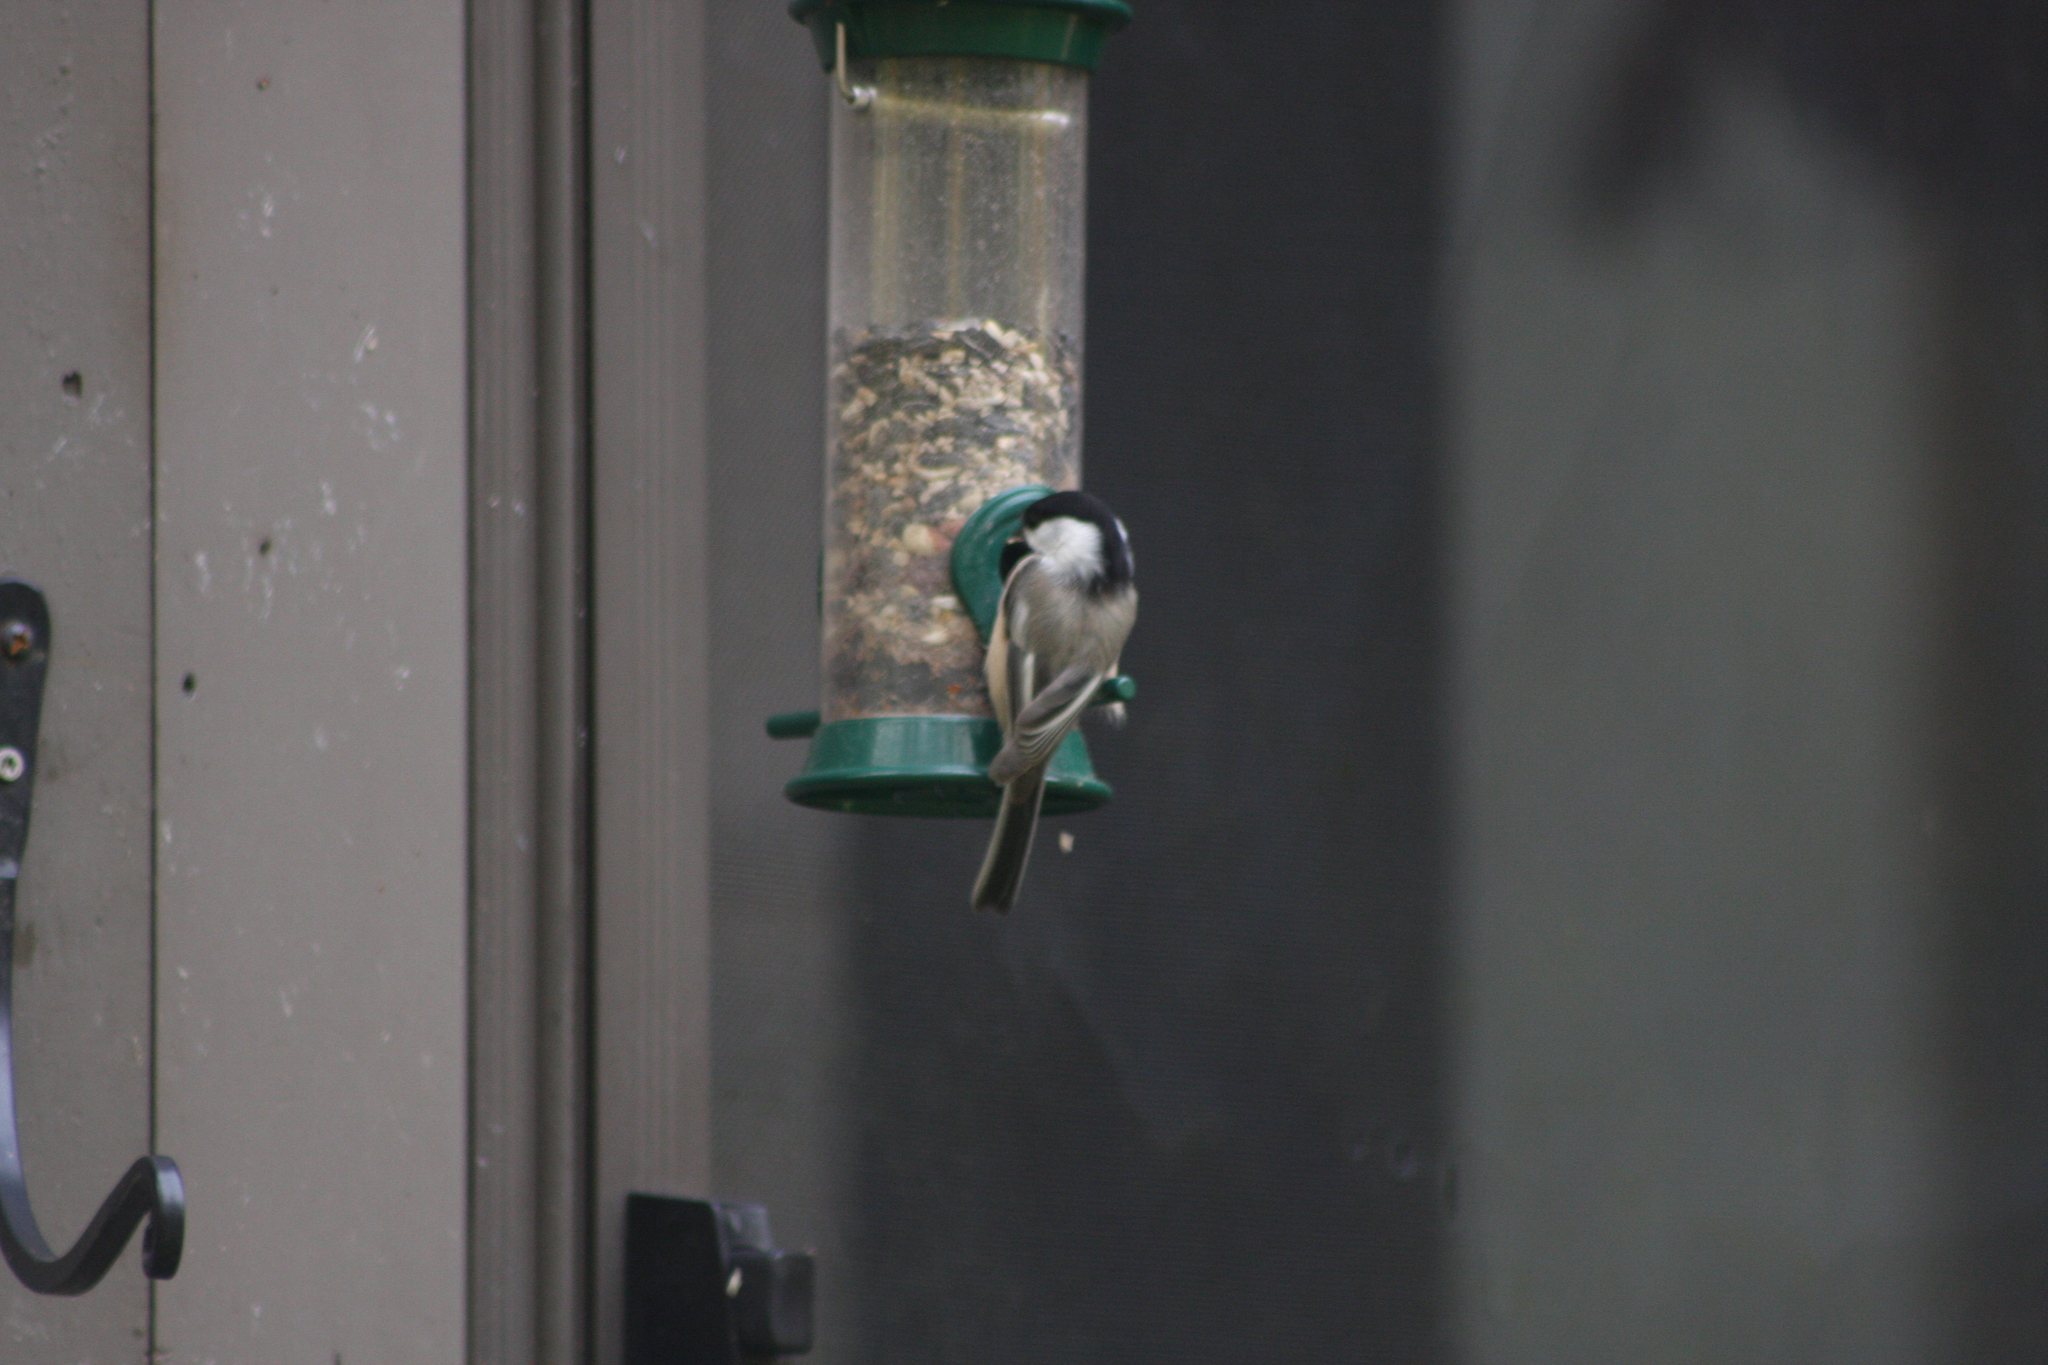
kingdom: Animalia
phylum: Chordata
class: Aves
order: Passeriformes
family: Paridae
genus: Poecile
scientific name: Poecile atricapillus
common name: Black-capped chickadee
